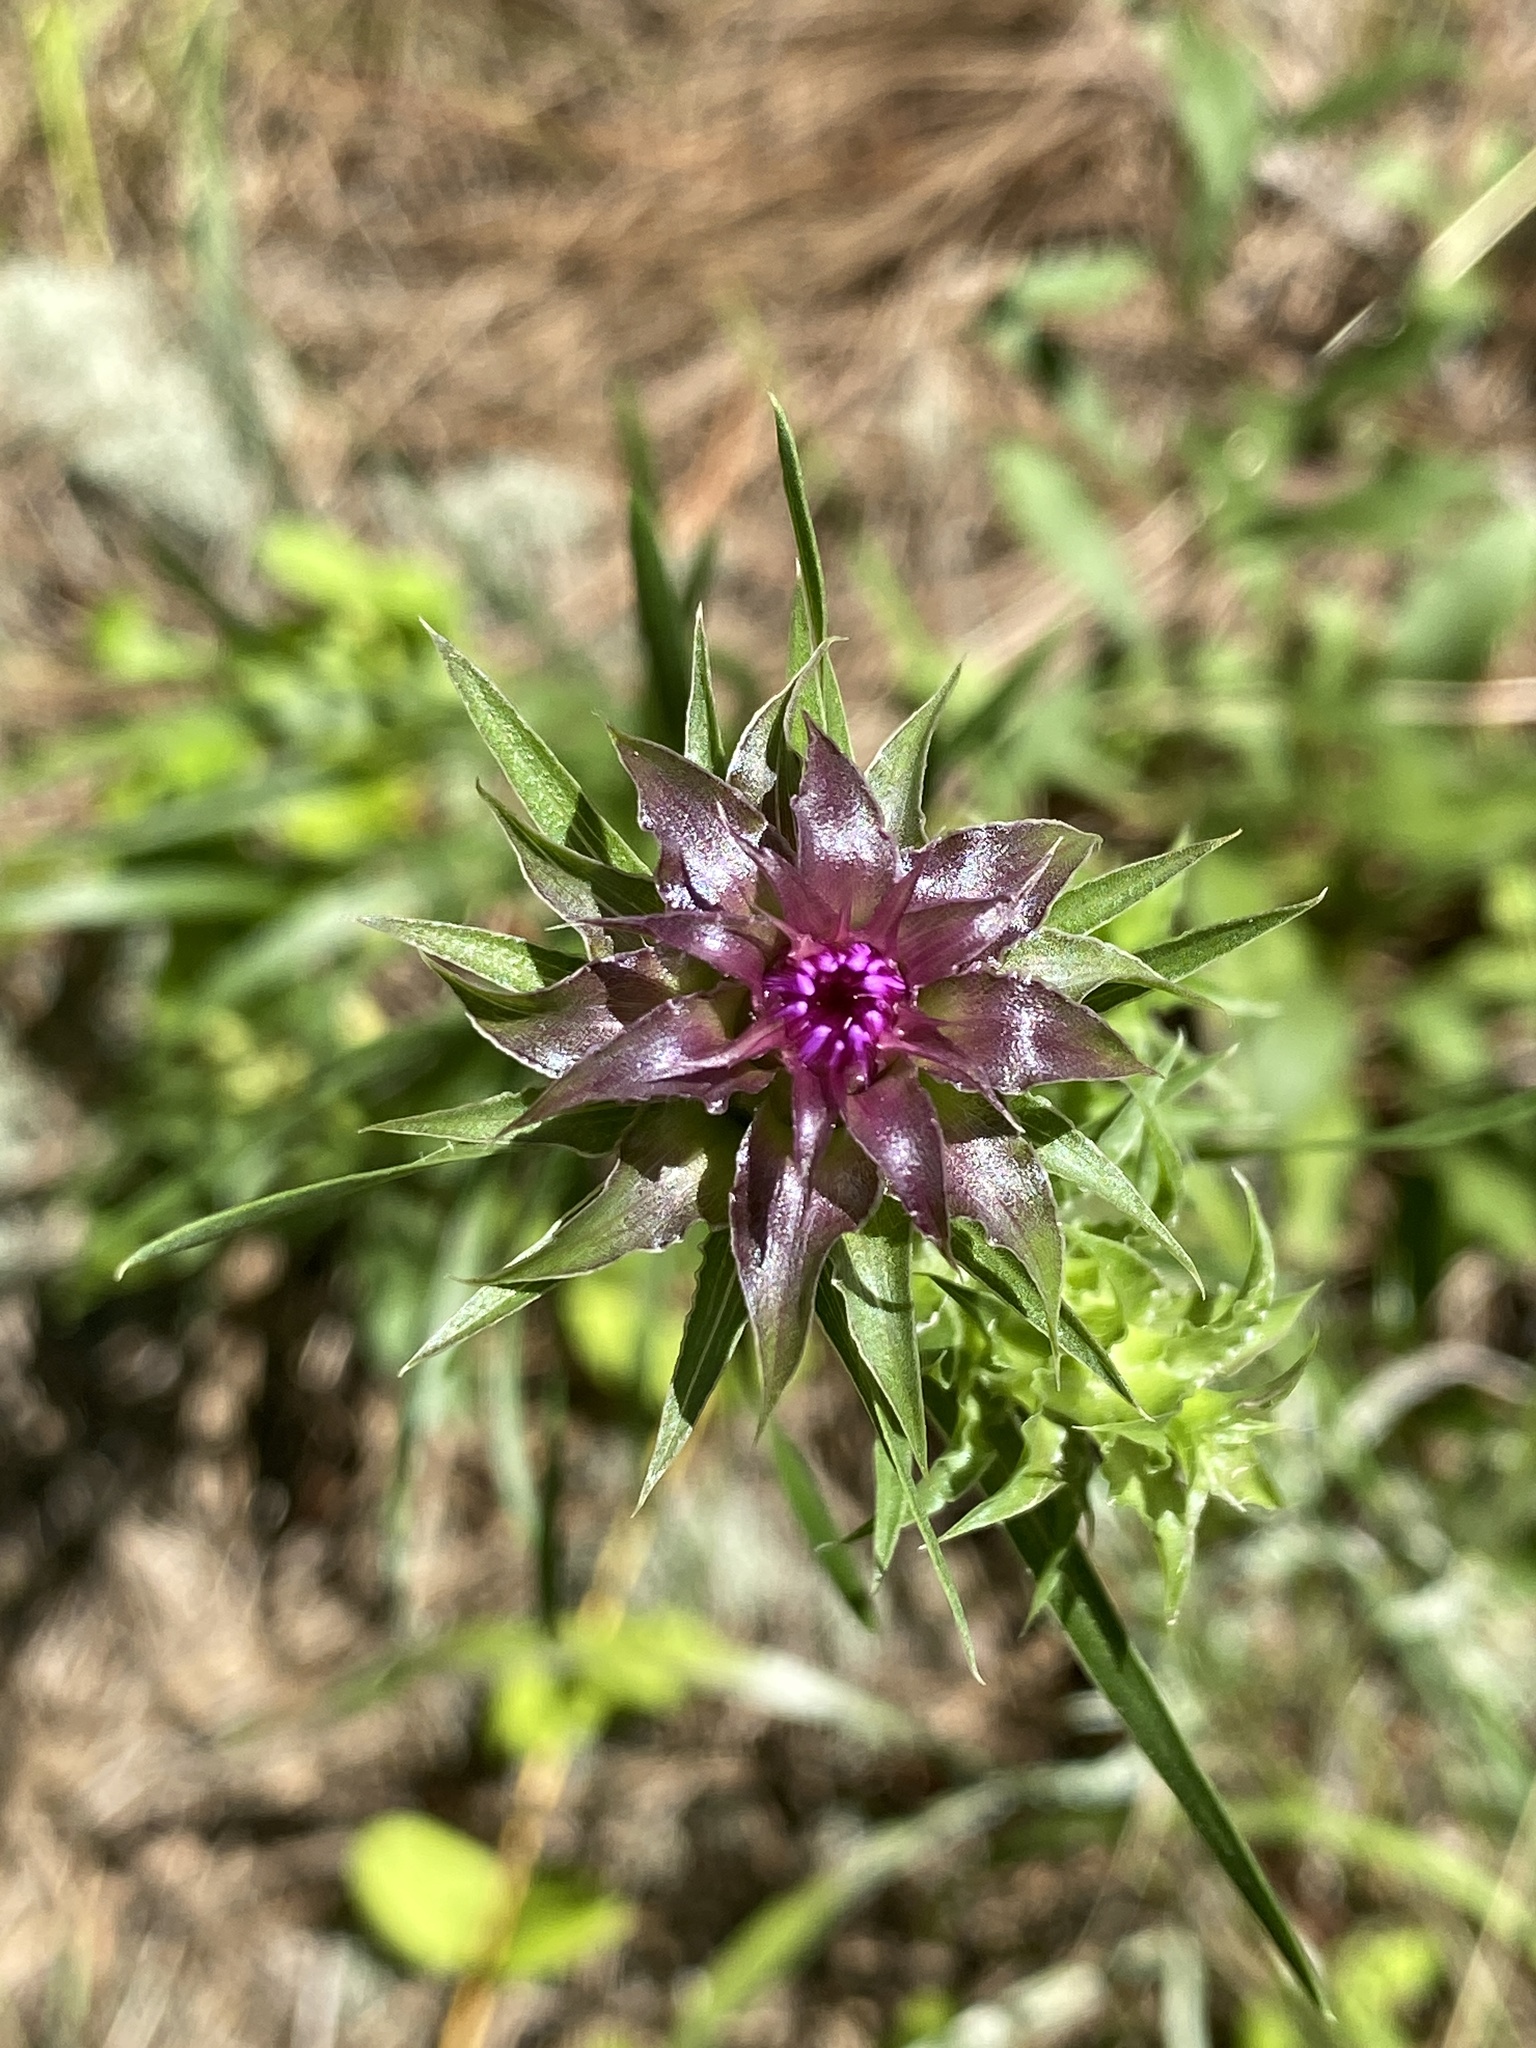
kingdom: Plantae
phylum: Tracheophyta
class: Magnoliopsida
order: Asterales
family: Asteraceae
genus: Liatris
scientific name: Liatris squarrosa
